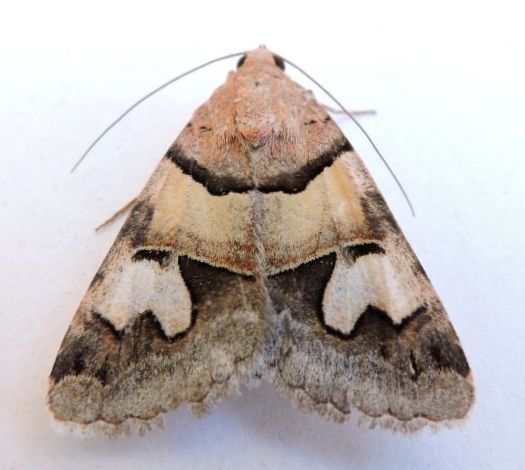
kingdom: Animalia
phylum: Arthropoda
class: Insecta
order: Lepidoptera
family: Erebidae
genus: Drasteria
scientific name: Drasteria pallescens
